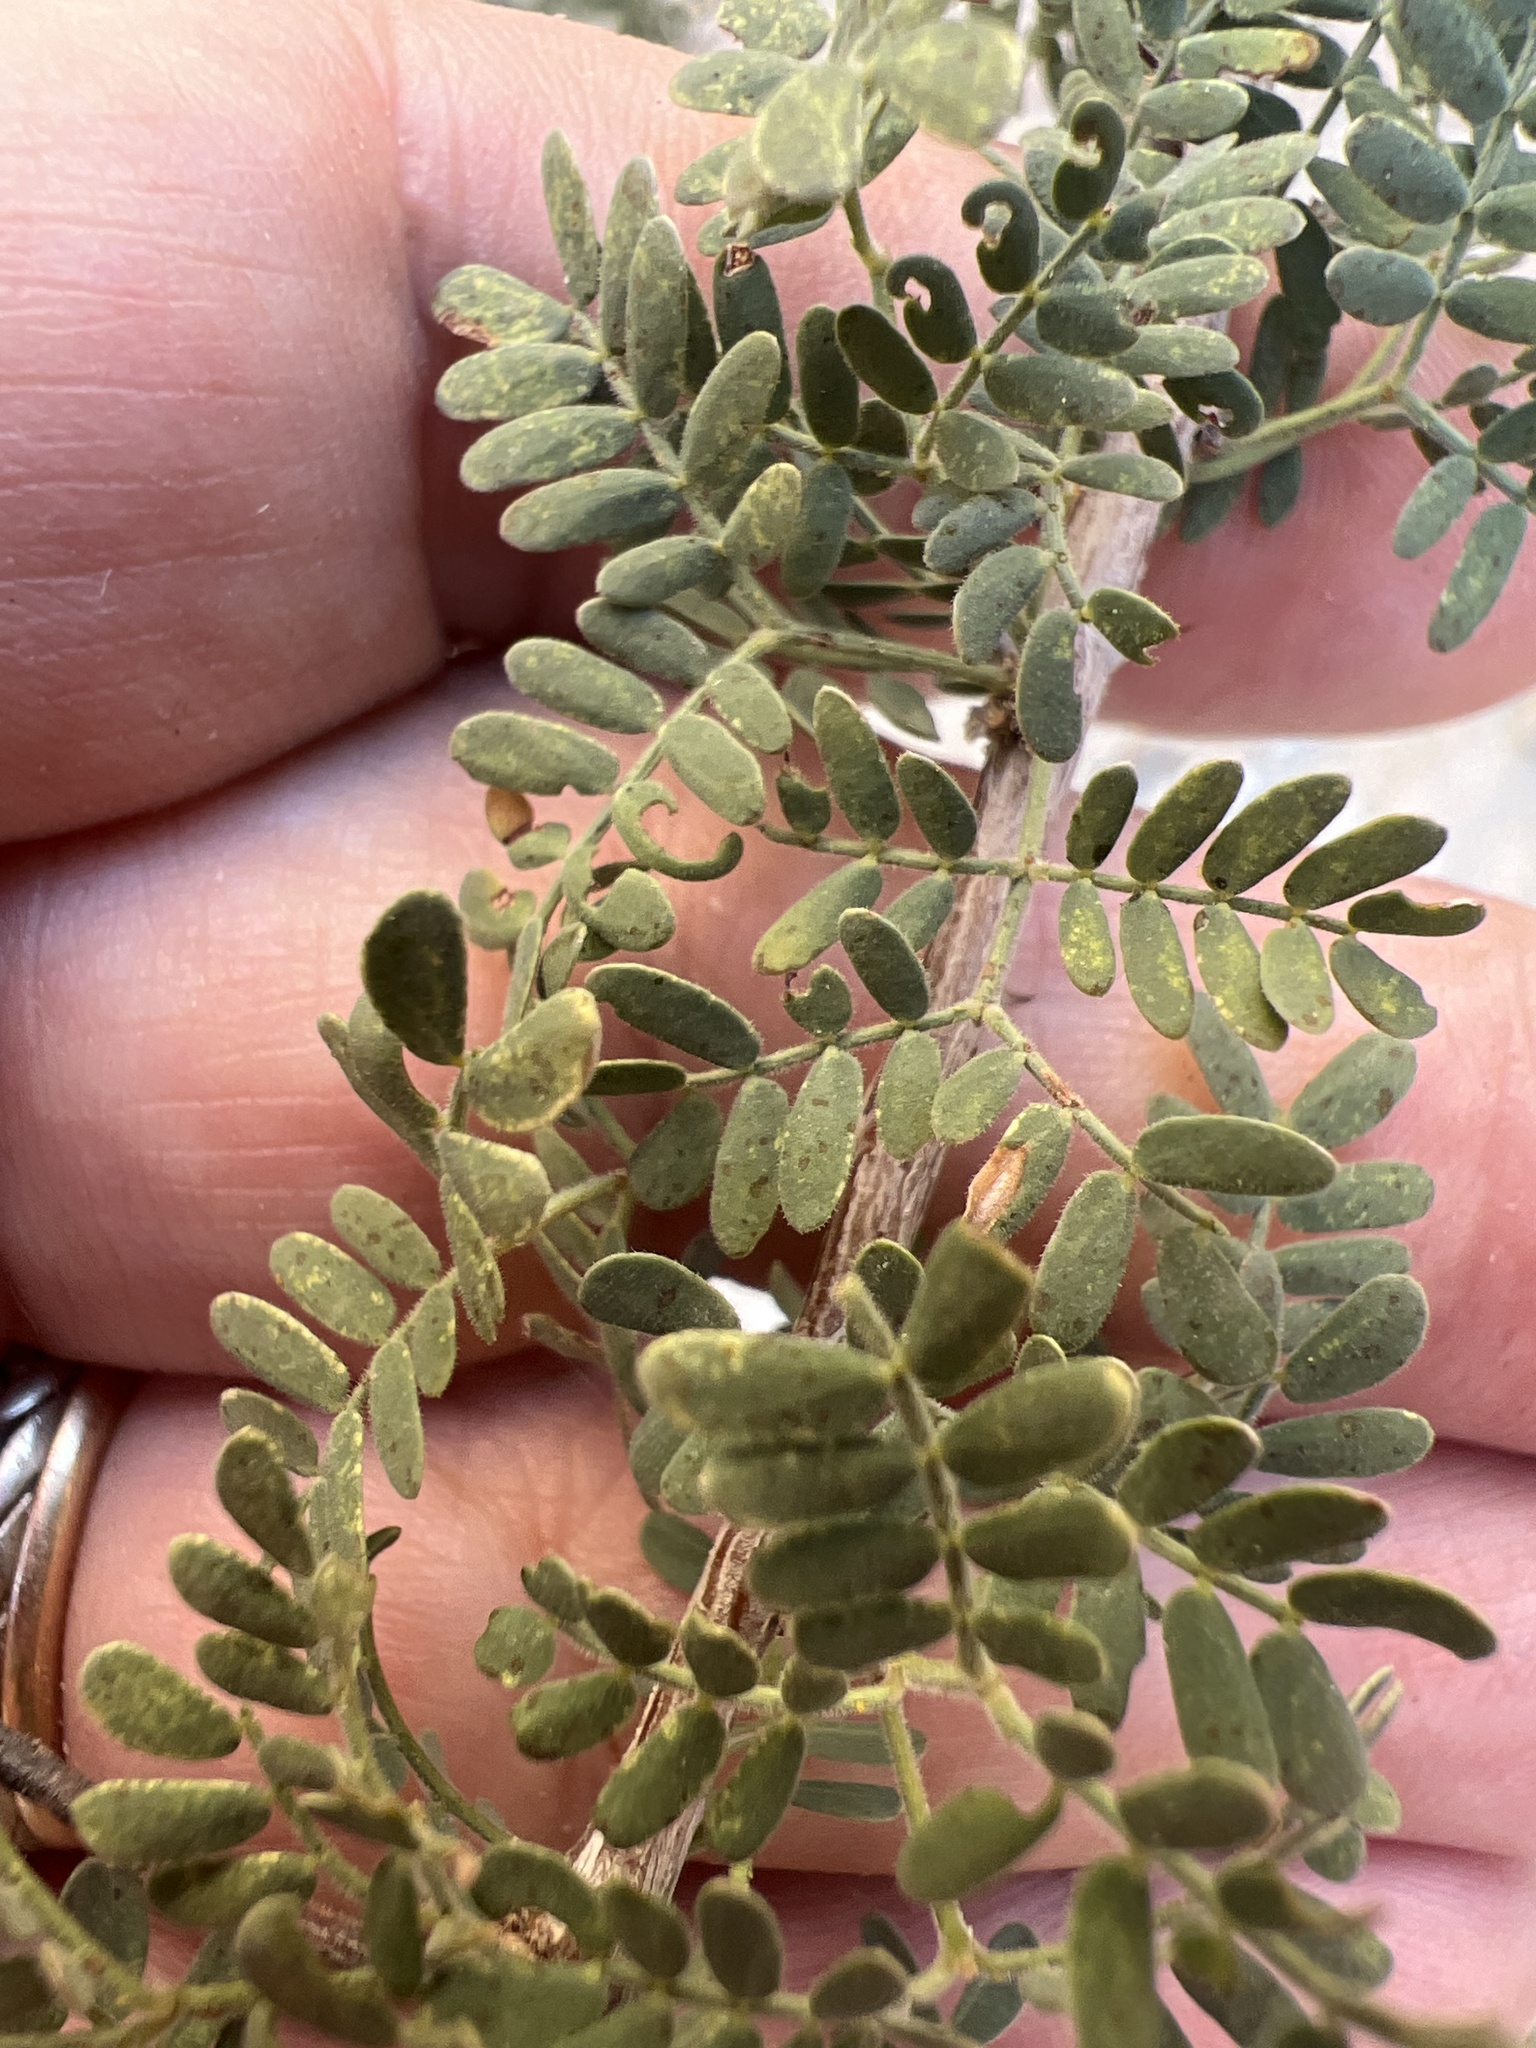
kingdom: Plantae
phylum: Tracheophyta
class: Magnoliopsida
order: Fabales
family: Fabaceae
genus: Senegalia
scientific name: Senegalia greggii
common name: Texas-mimosa
